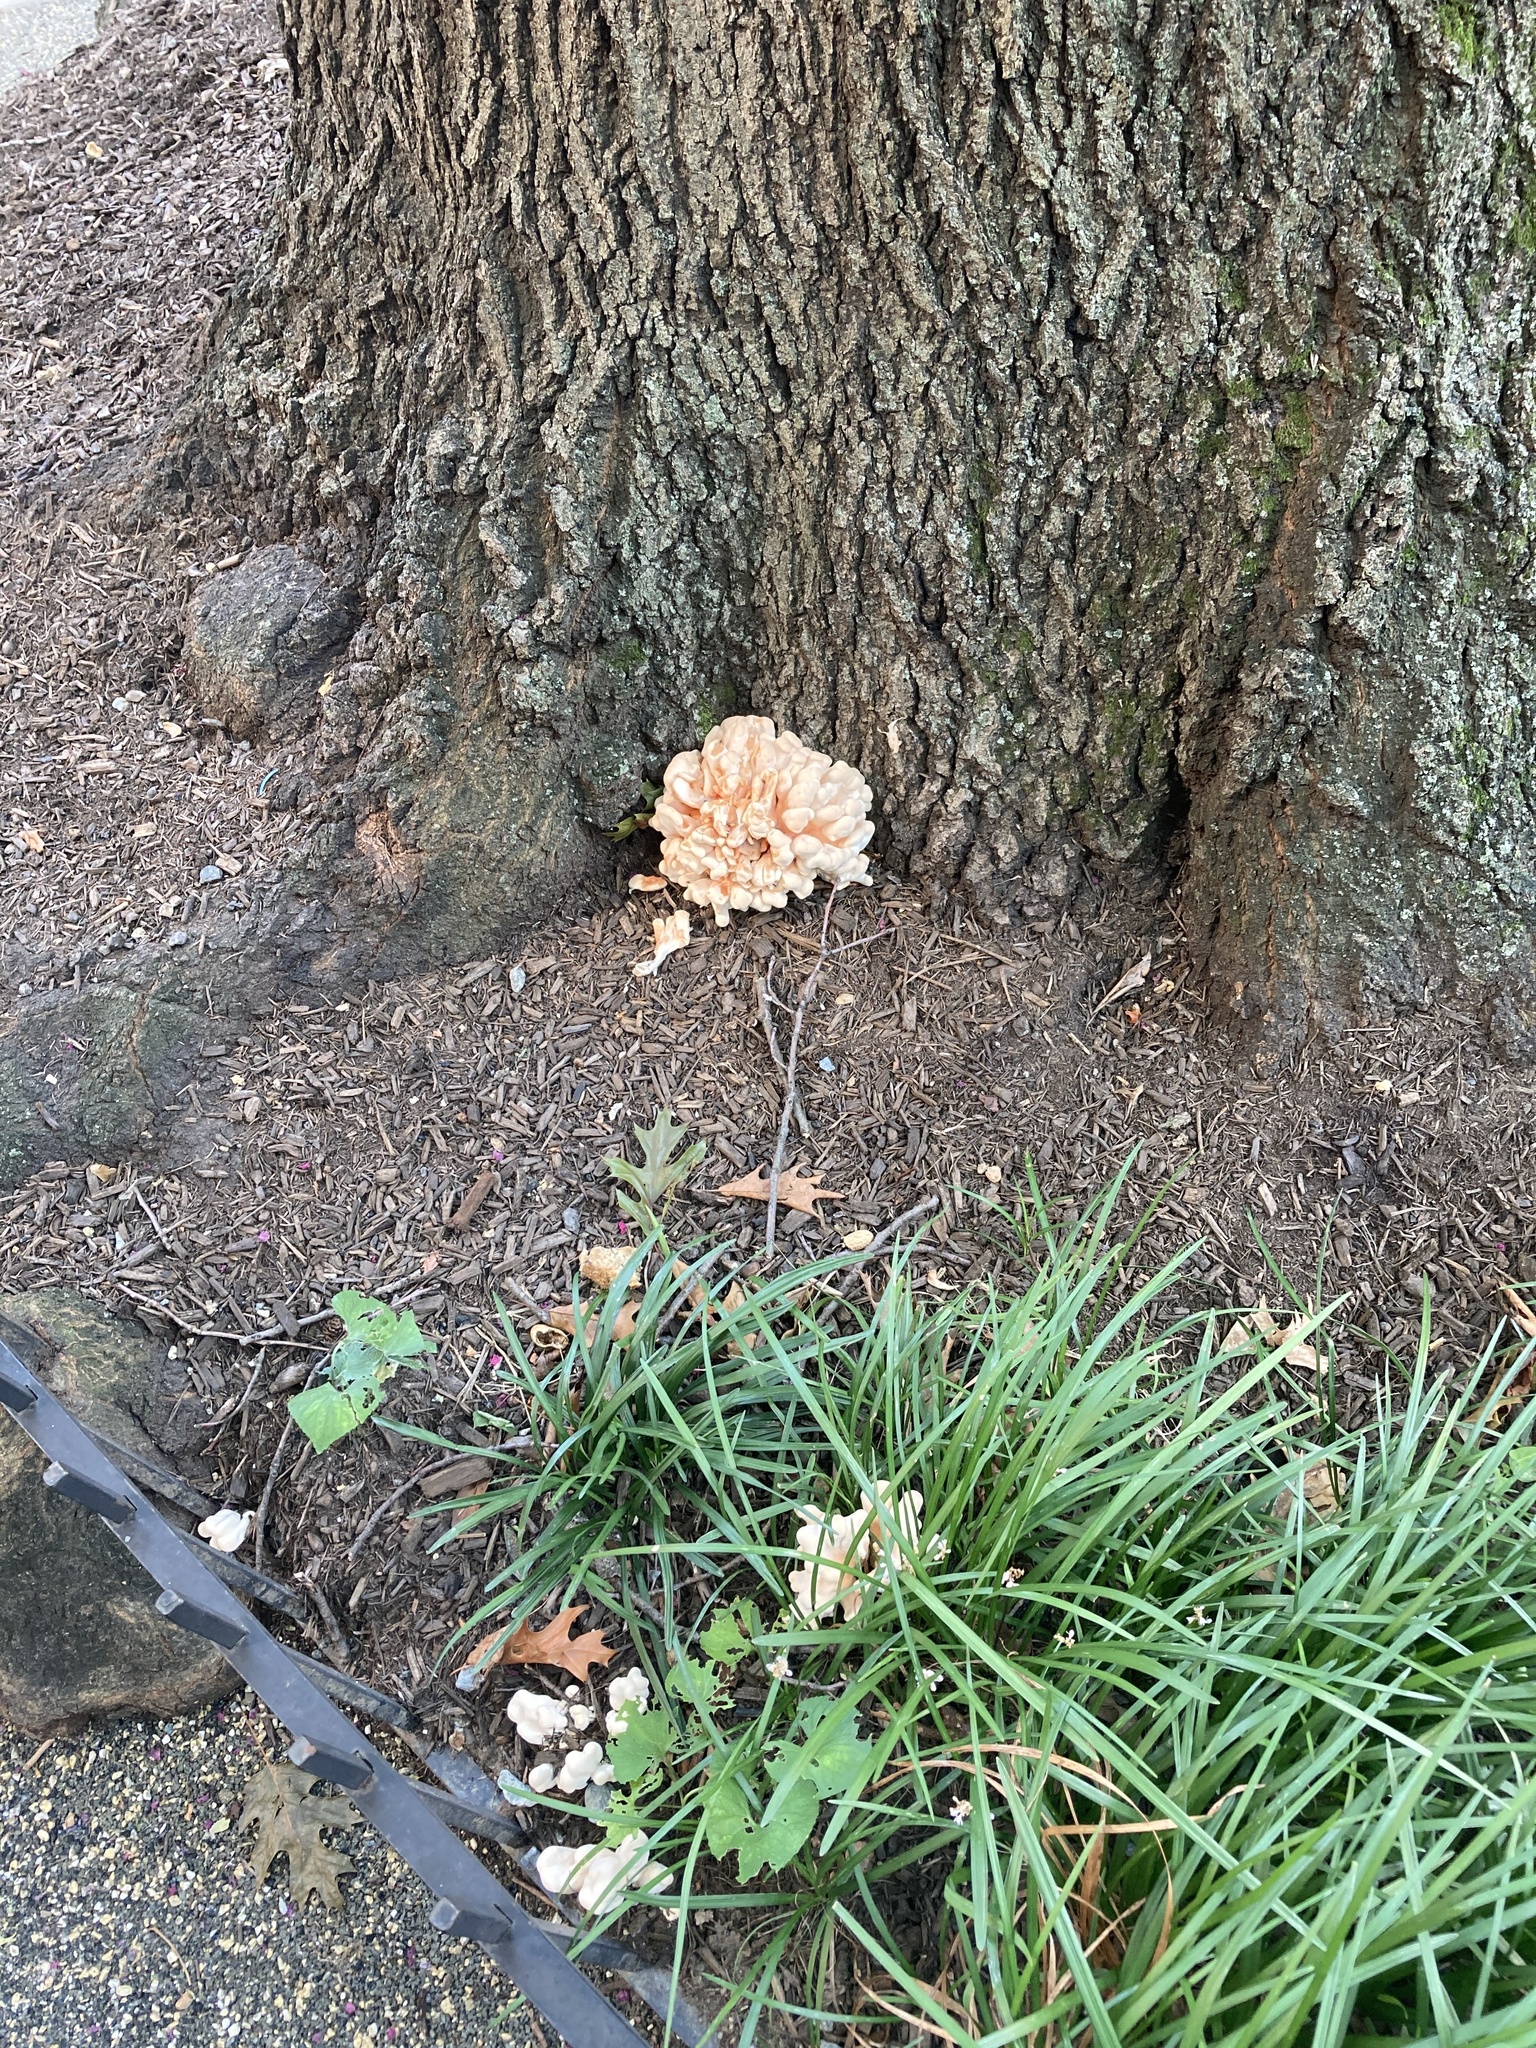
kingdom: Fungi
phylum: Basidiomycota
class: Agaricomycetes
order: Polyporales
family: Laetiporaceae
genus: Laetiporus
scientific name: Laetiporus sulphureus
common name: Chicken of the woods
